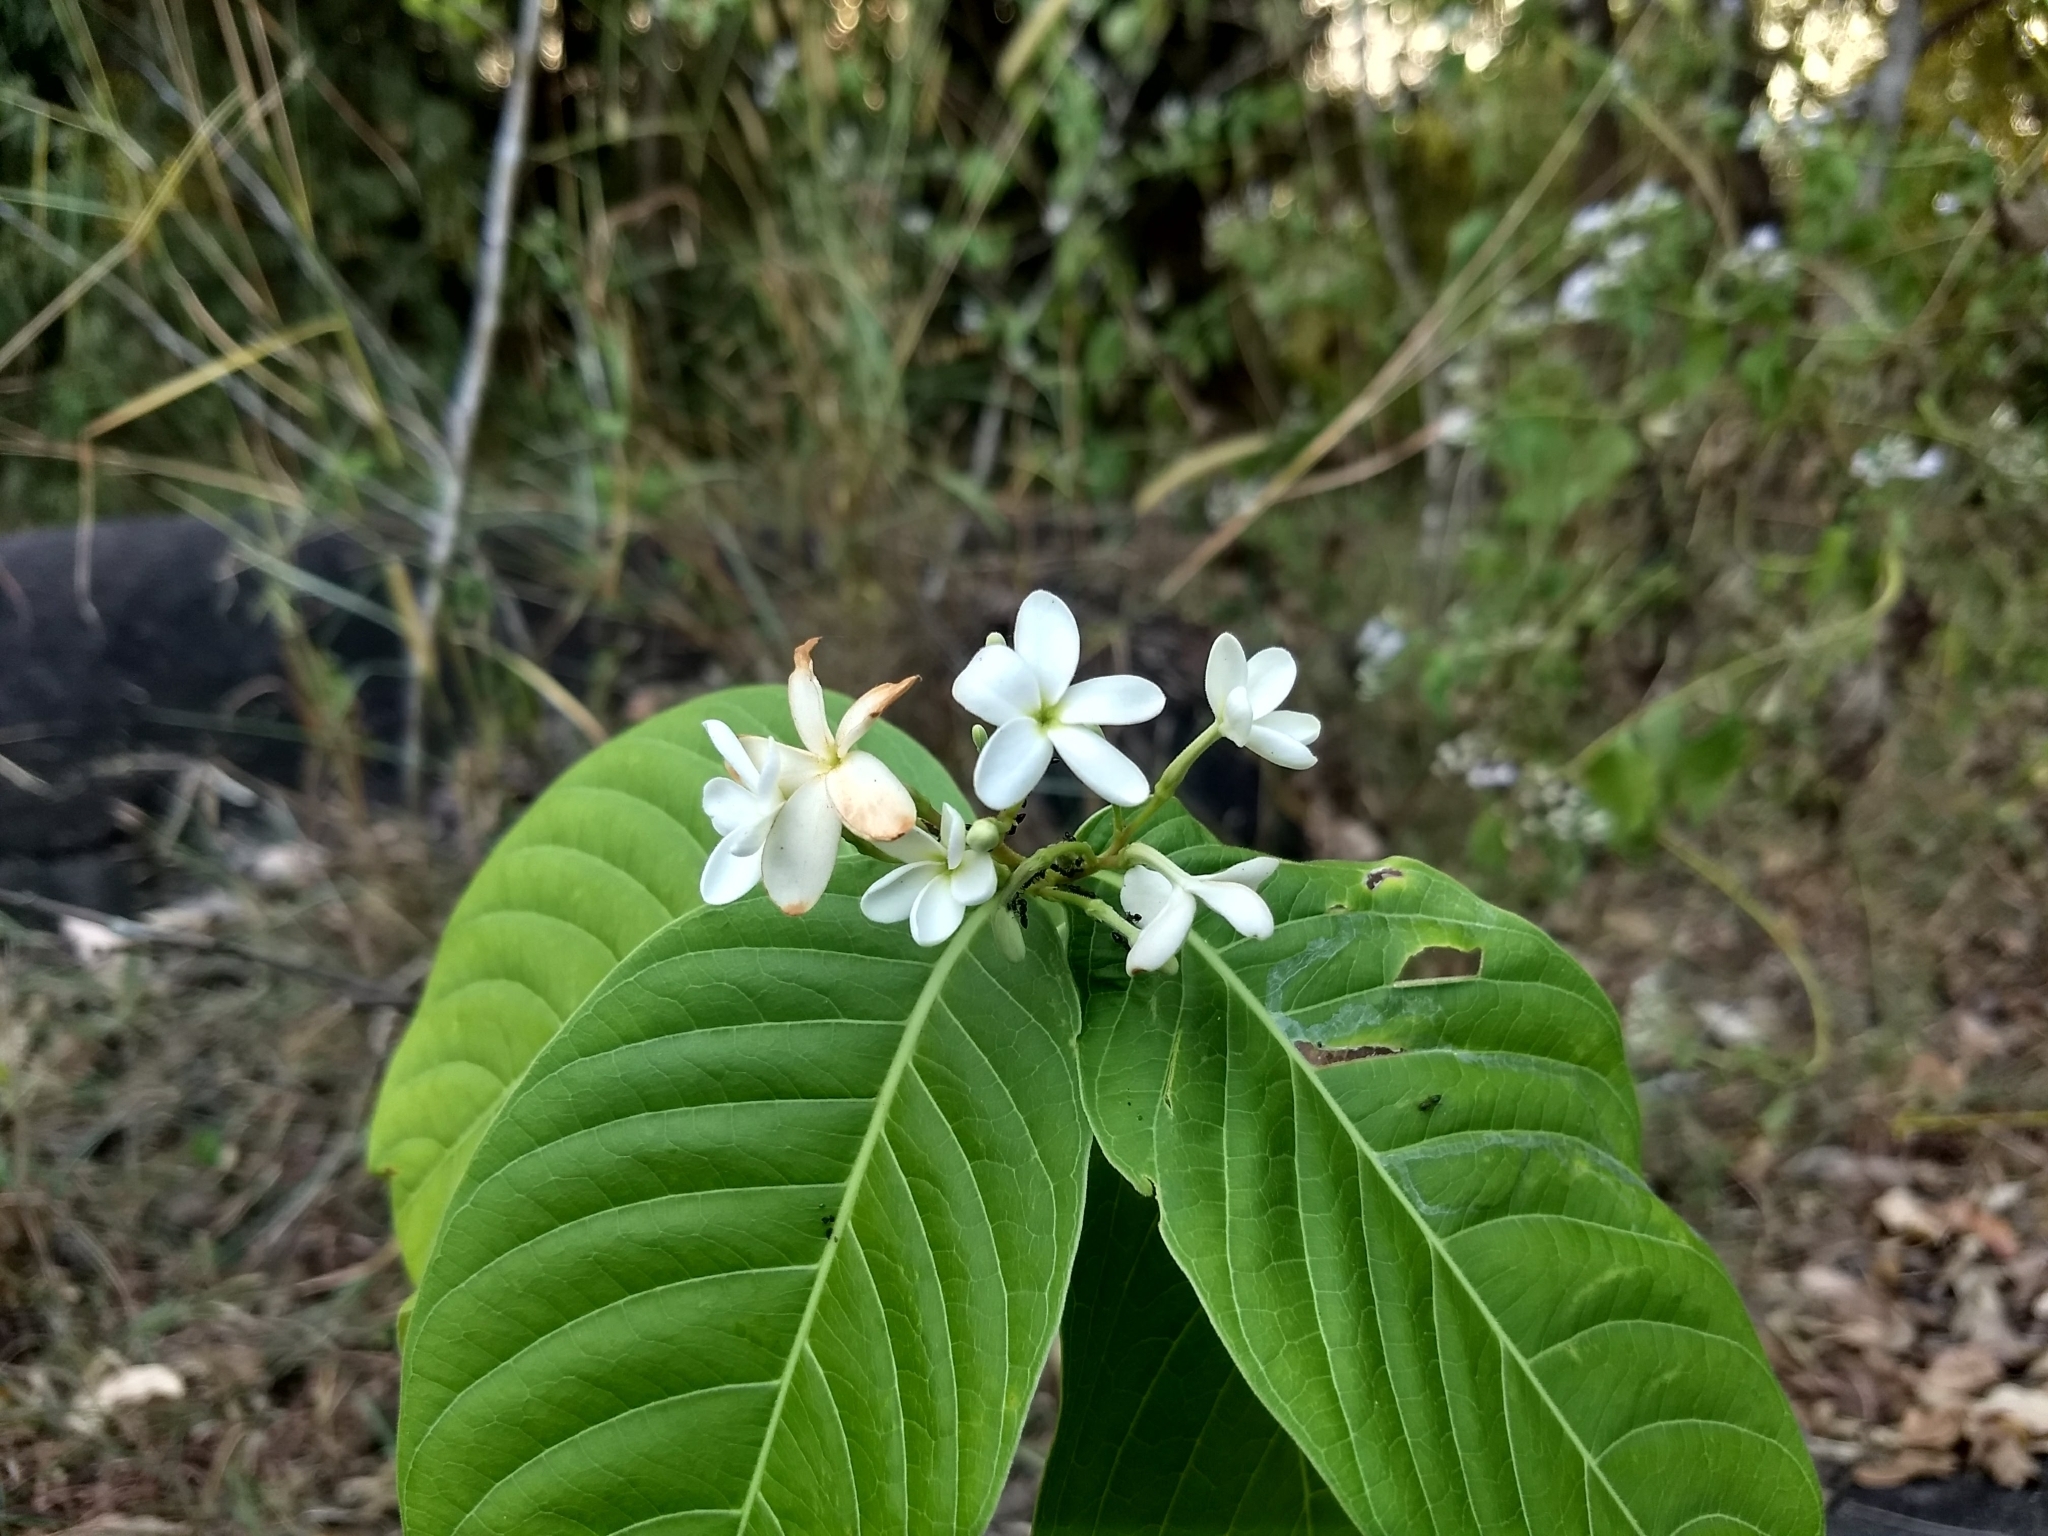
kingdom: Plantae
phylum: Tracheophyta
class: Magnoliopsida
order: Gentianales
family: Apocynaceae
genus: Holarrhena
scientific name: Holarrhena pubescens
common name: Bitter oleander
